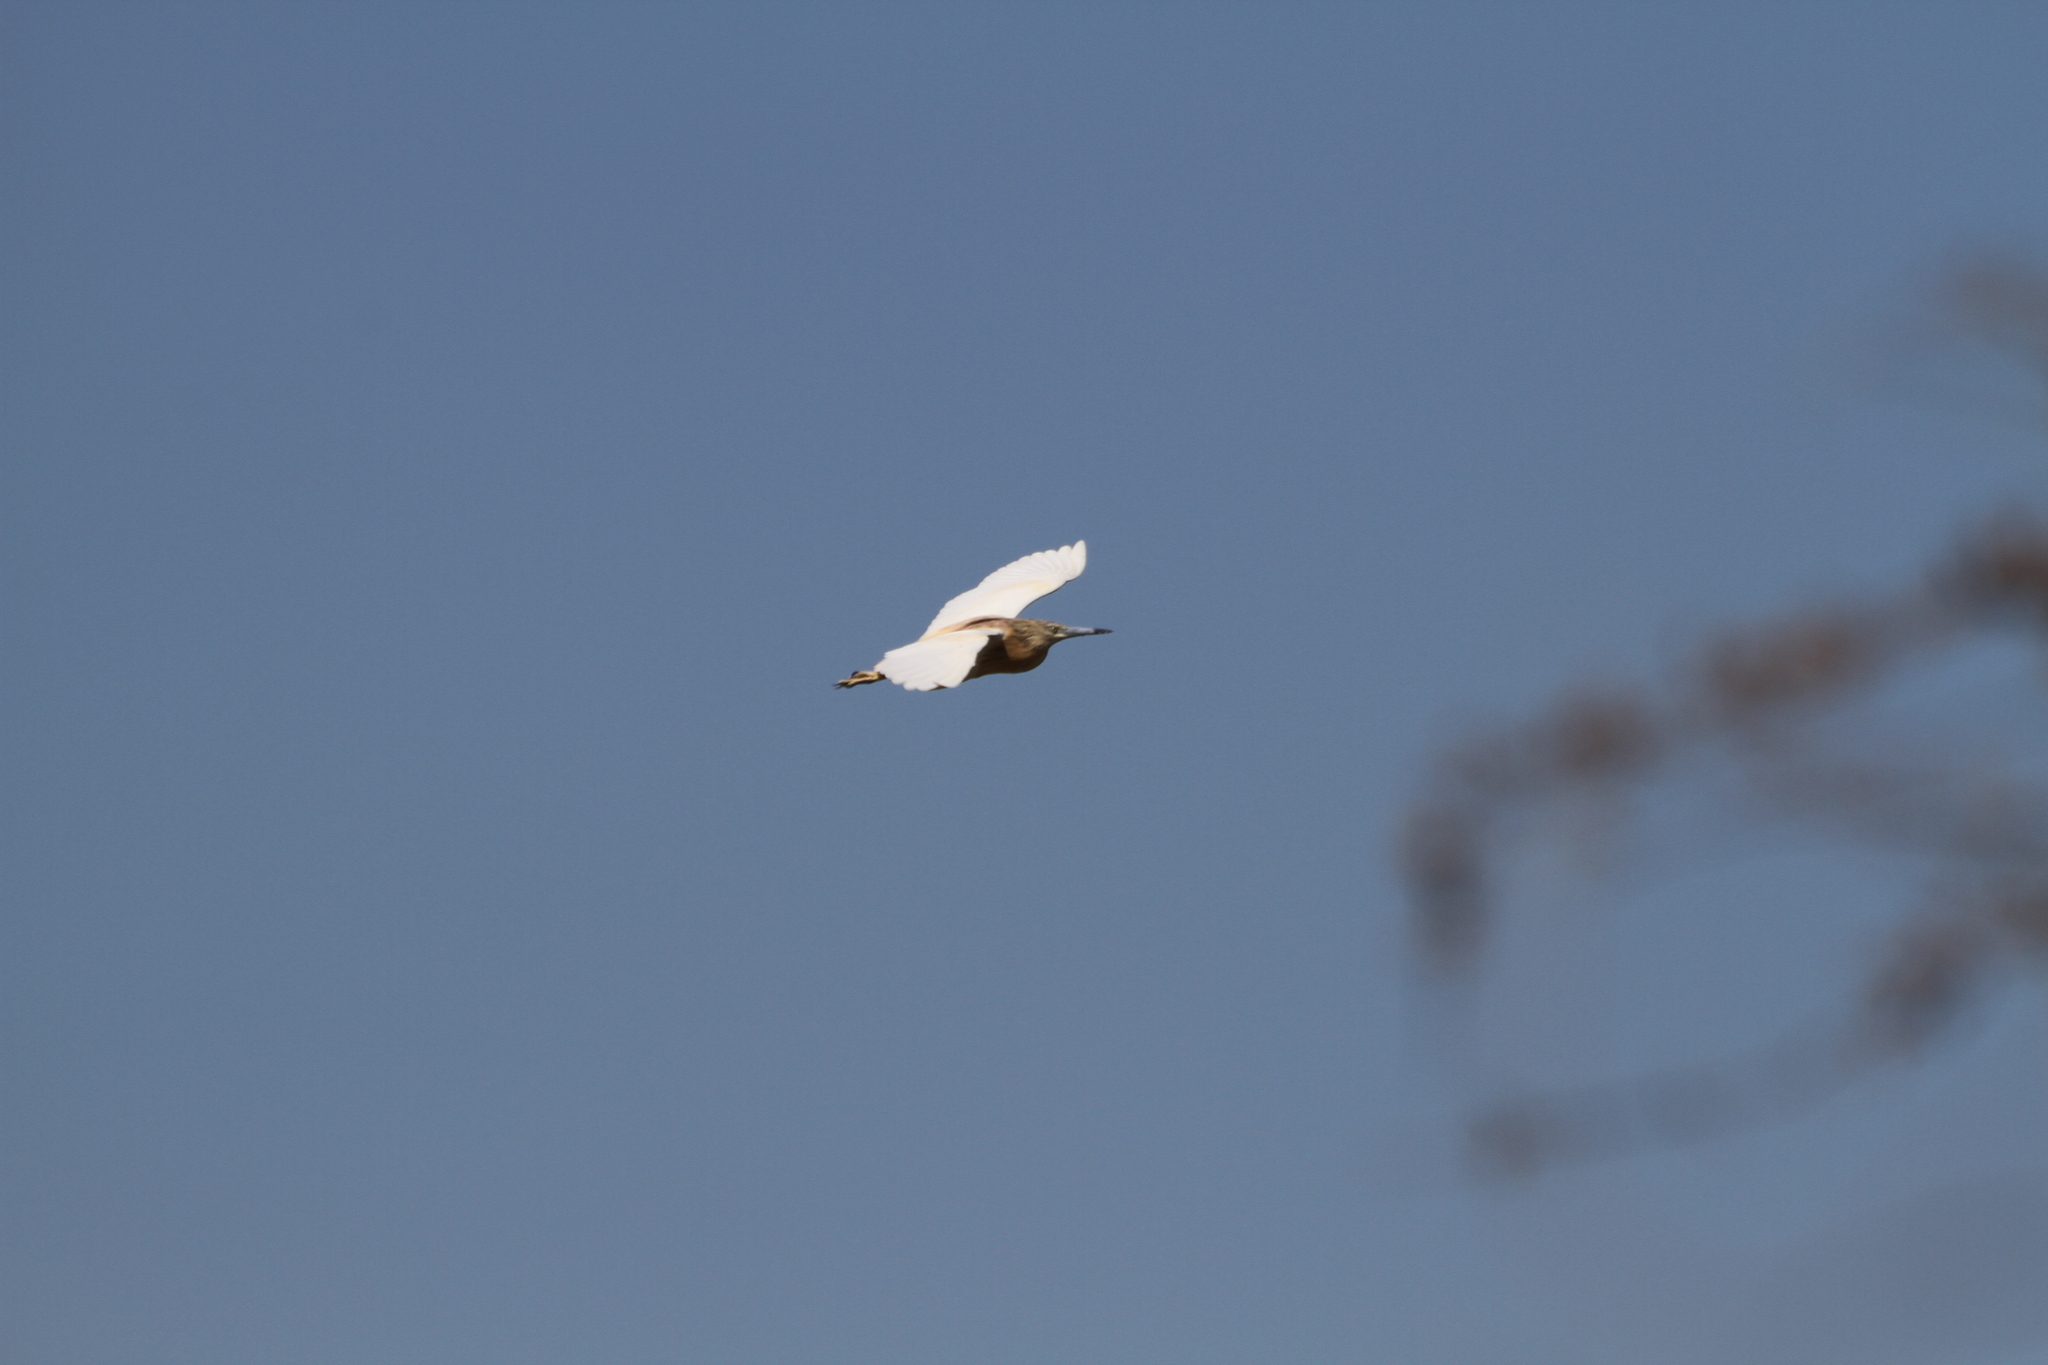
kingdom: Animalia
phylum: Chordata
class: Aves
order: Pelecaniformes
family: Ardeidae
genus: Ardeola
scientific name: Ardeola ralloides
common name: Squacco heron
